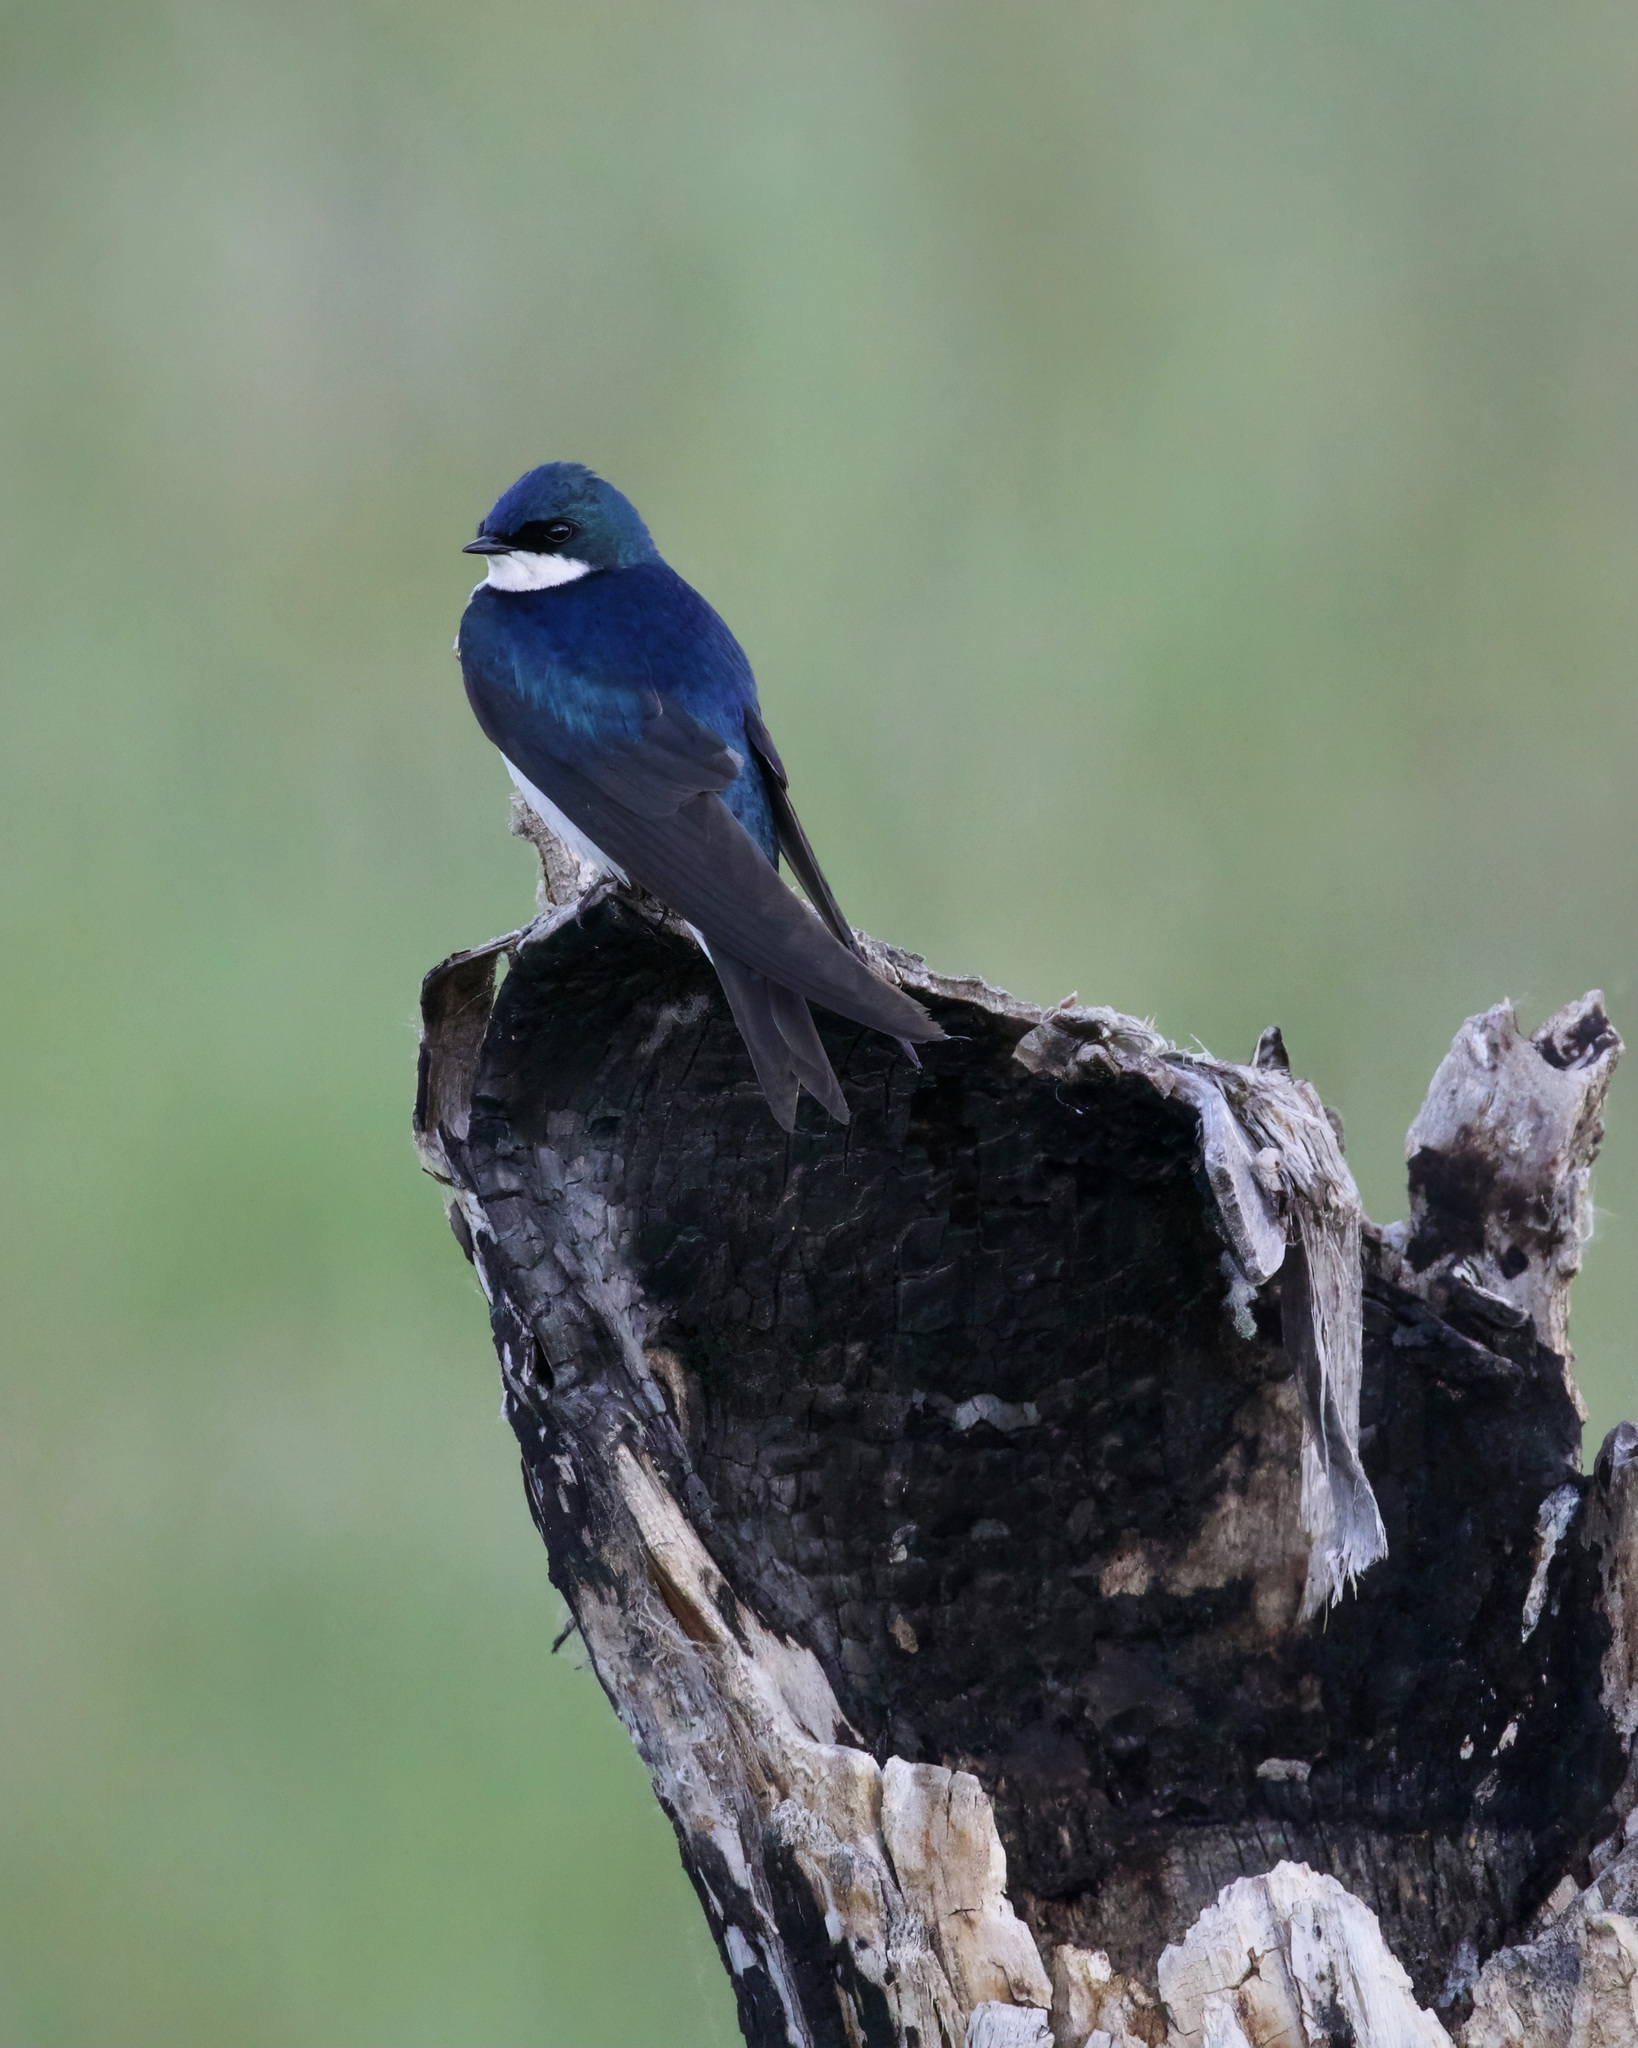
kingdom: Animalia
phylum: Chordata
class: Aves
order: Passeriformes
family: Hirundinidae
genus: Tachycineta
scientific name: Tachycineta bicolor
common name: Tree swallow
